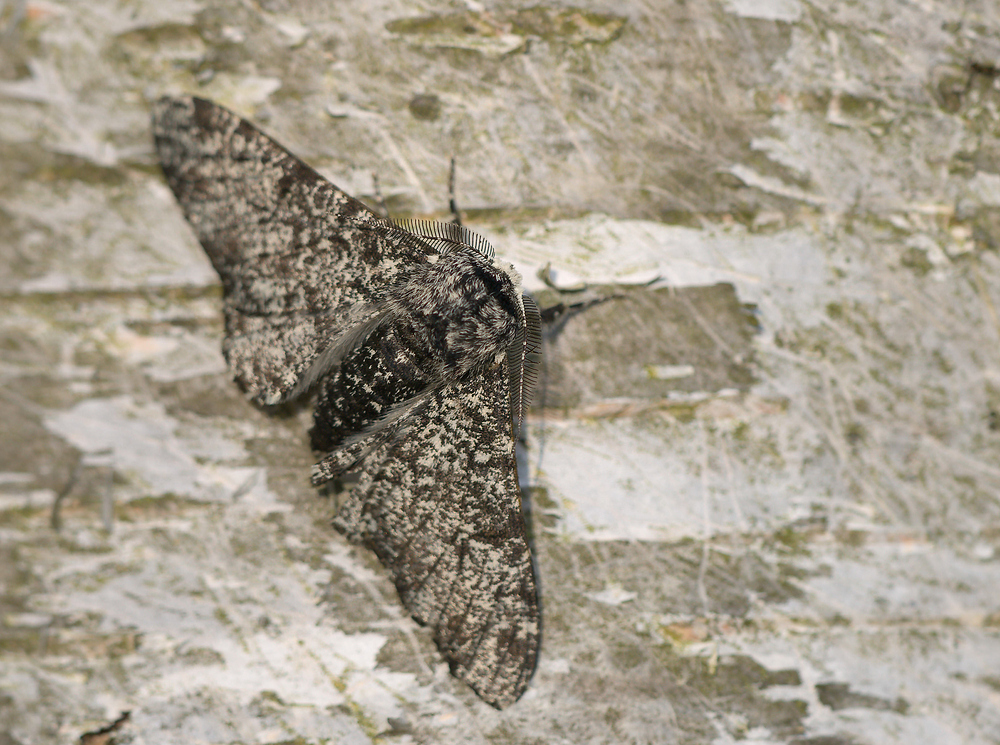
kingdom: Animalia
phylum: Arthropoda
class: Insecta
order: Lepidoptera
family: Geometridae
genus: Biston
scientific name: Biston betularia
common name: Peppered moth
